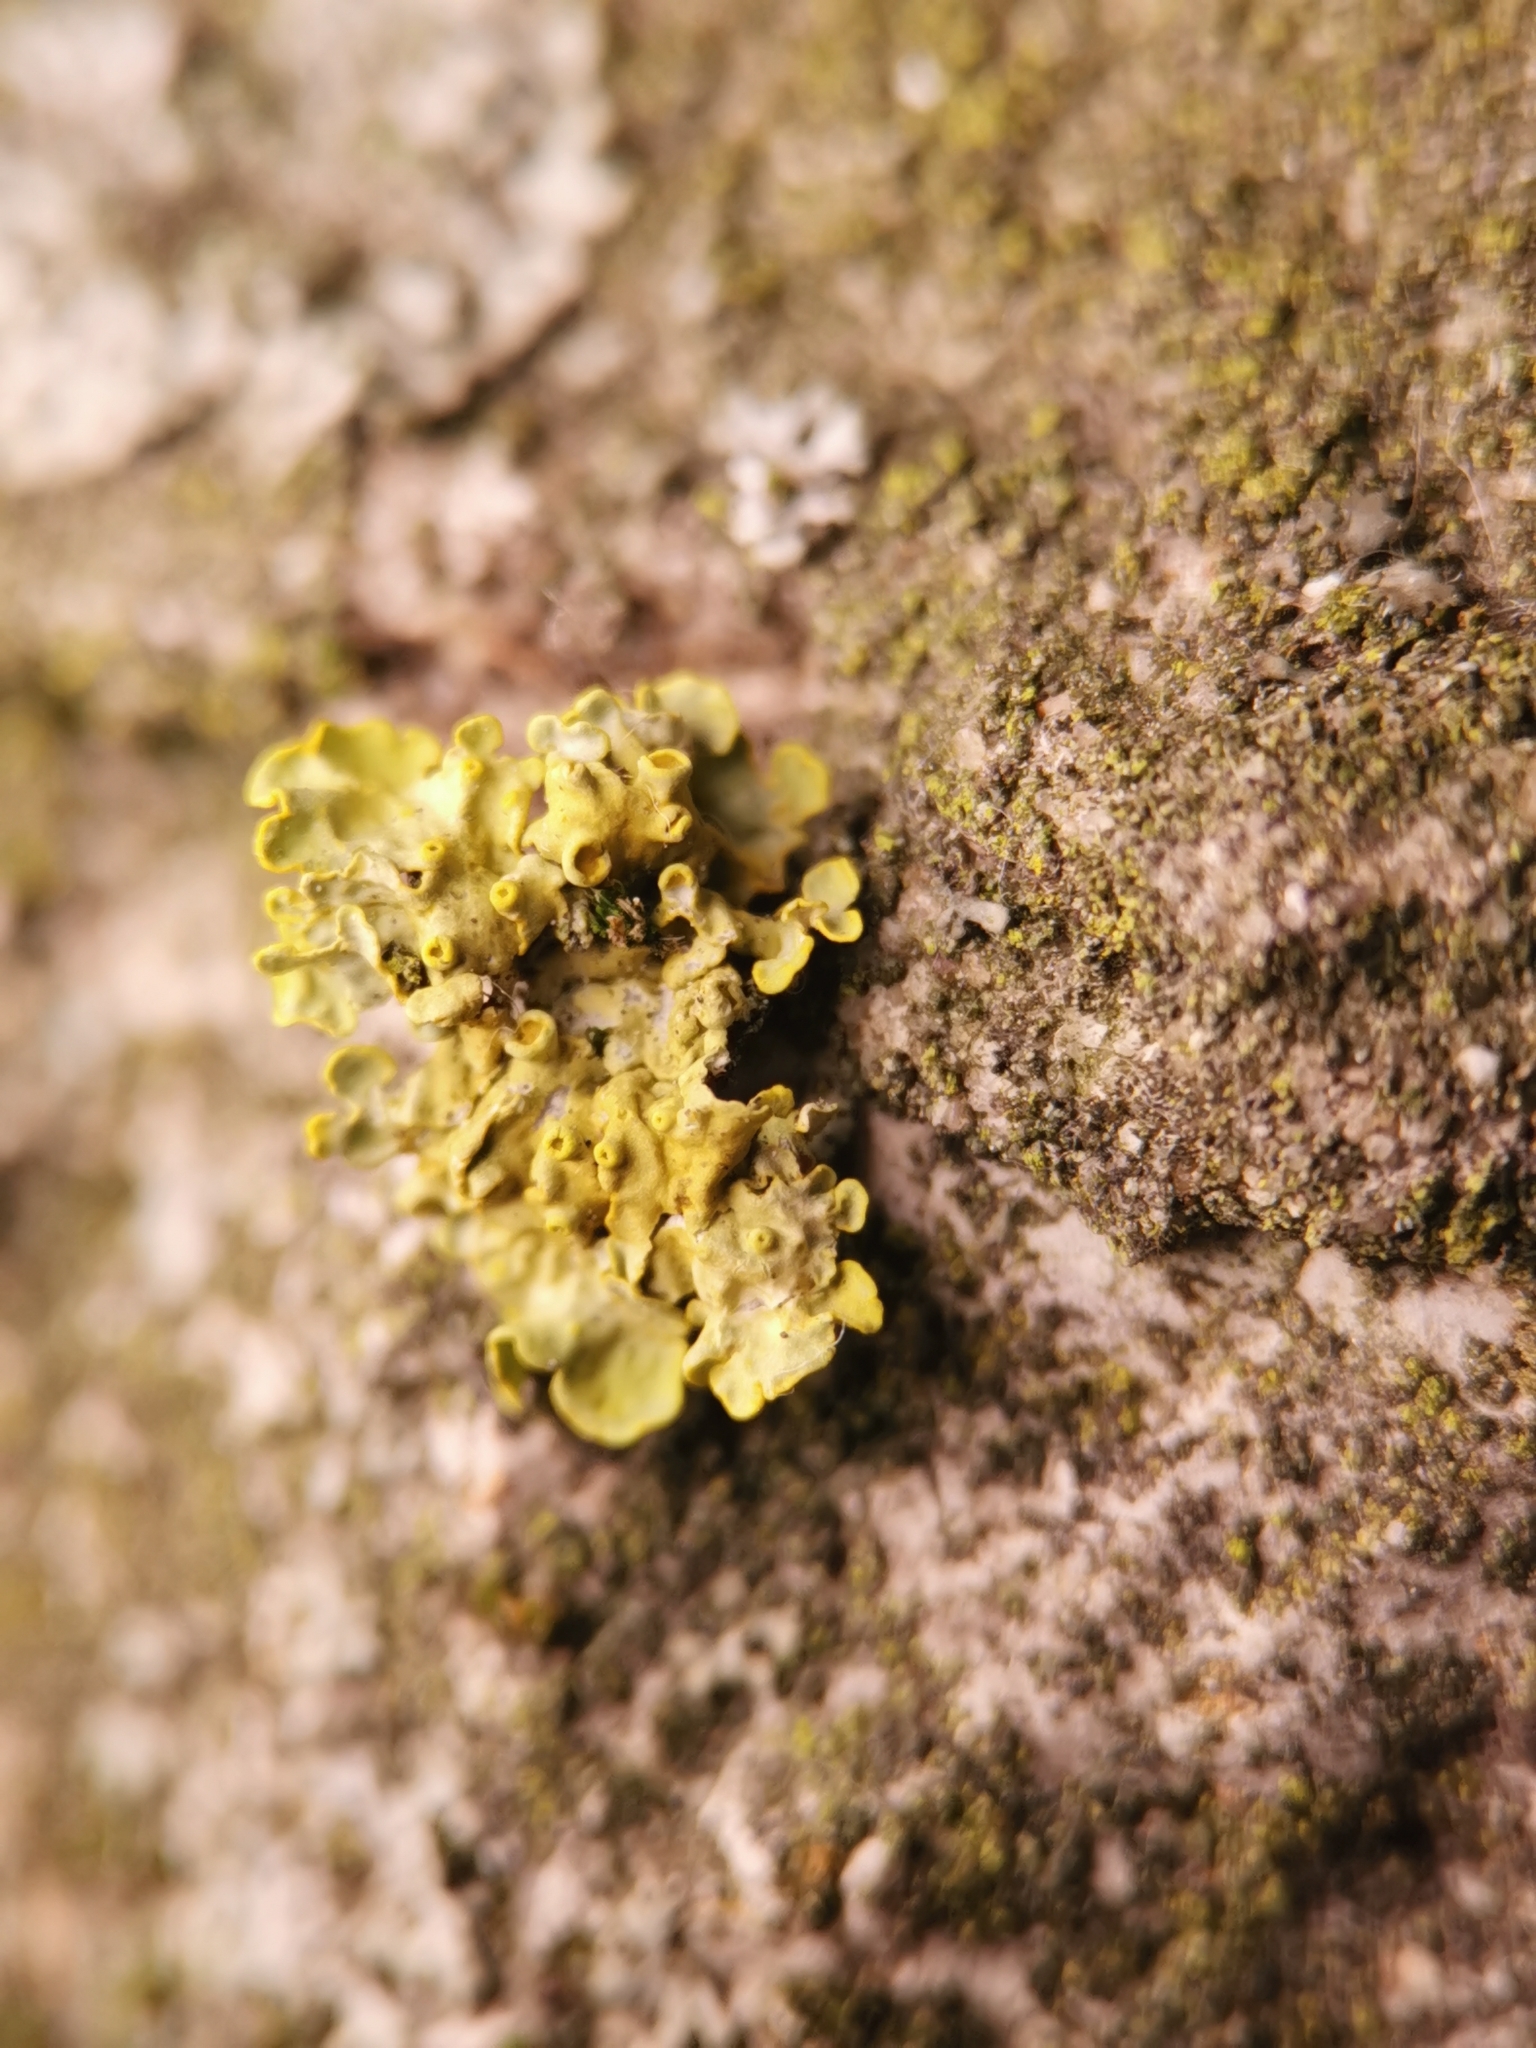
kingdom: Fungi
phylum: Ascomycota
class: Lecanoromycetes
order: Teloschistales
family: Teloschistaceae
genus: Xanthoria
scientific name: Xanthoria parietina
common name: Common orange lichen
